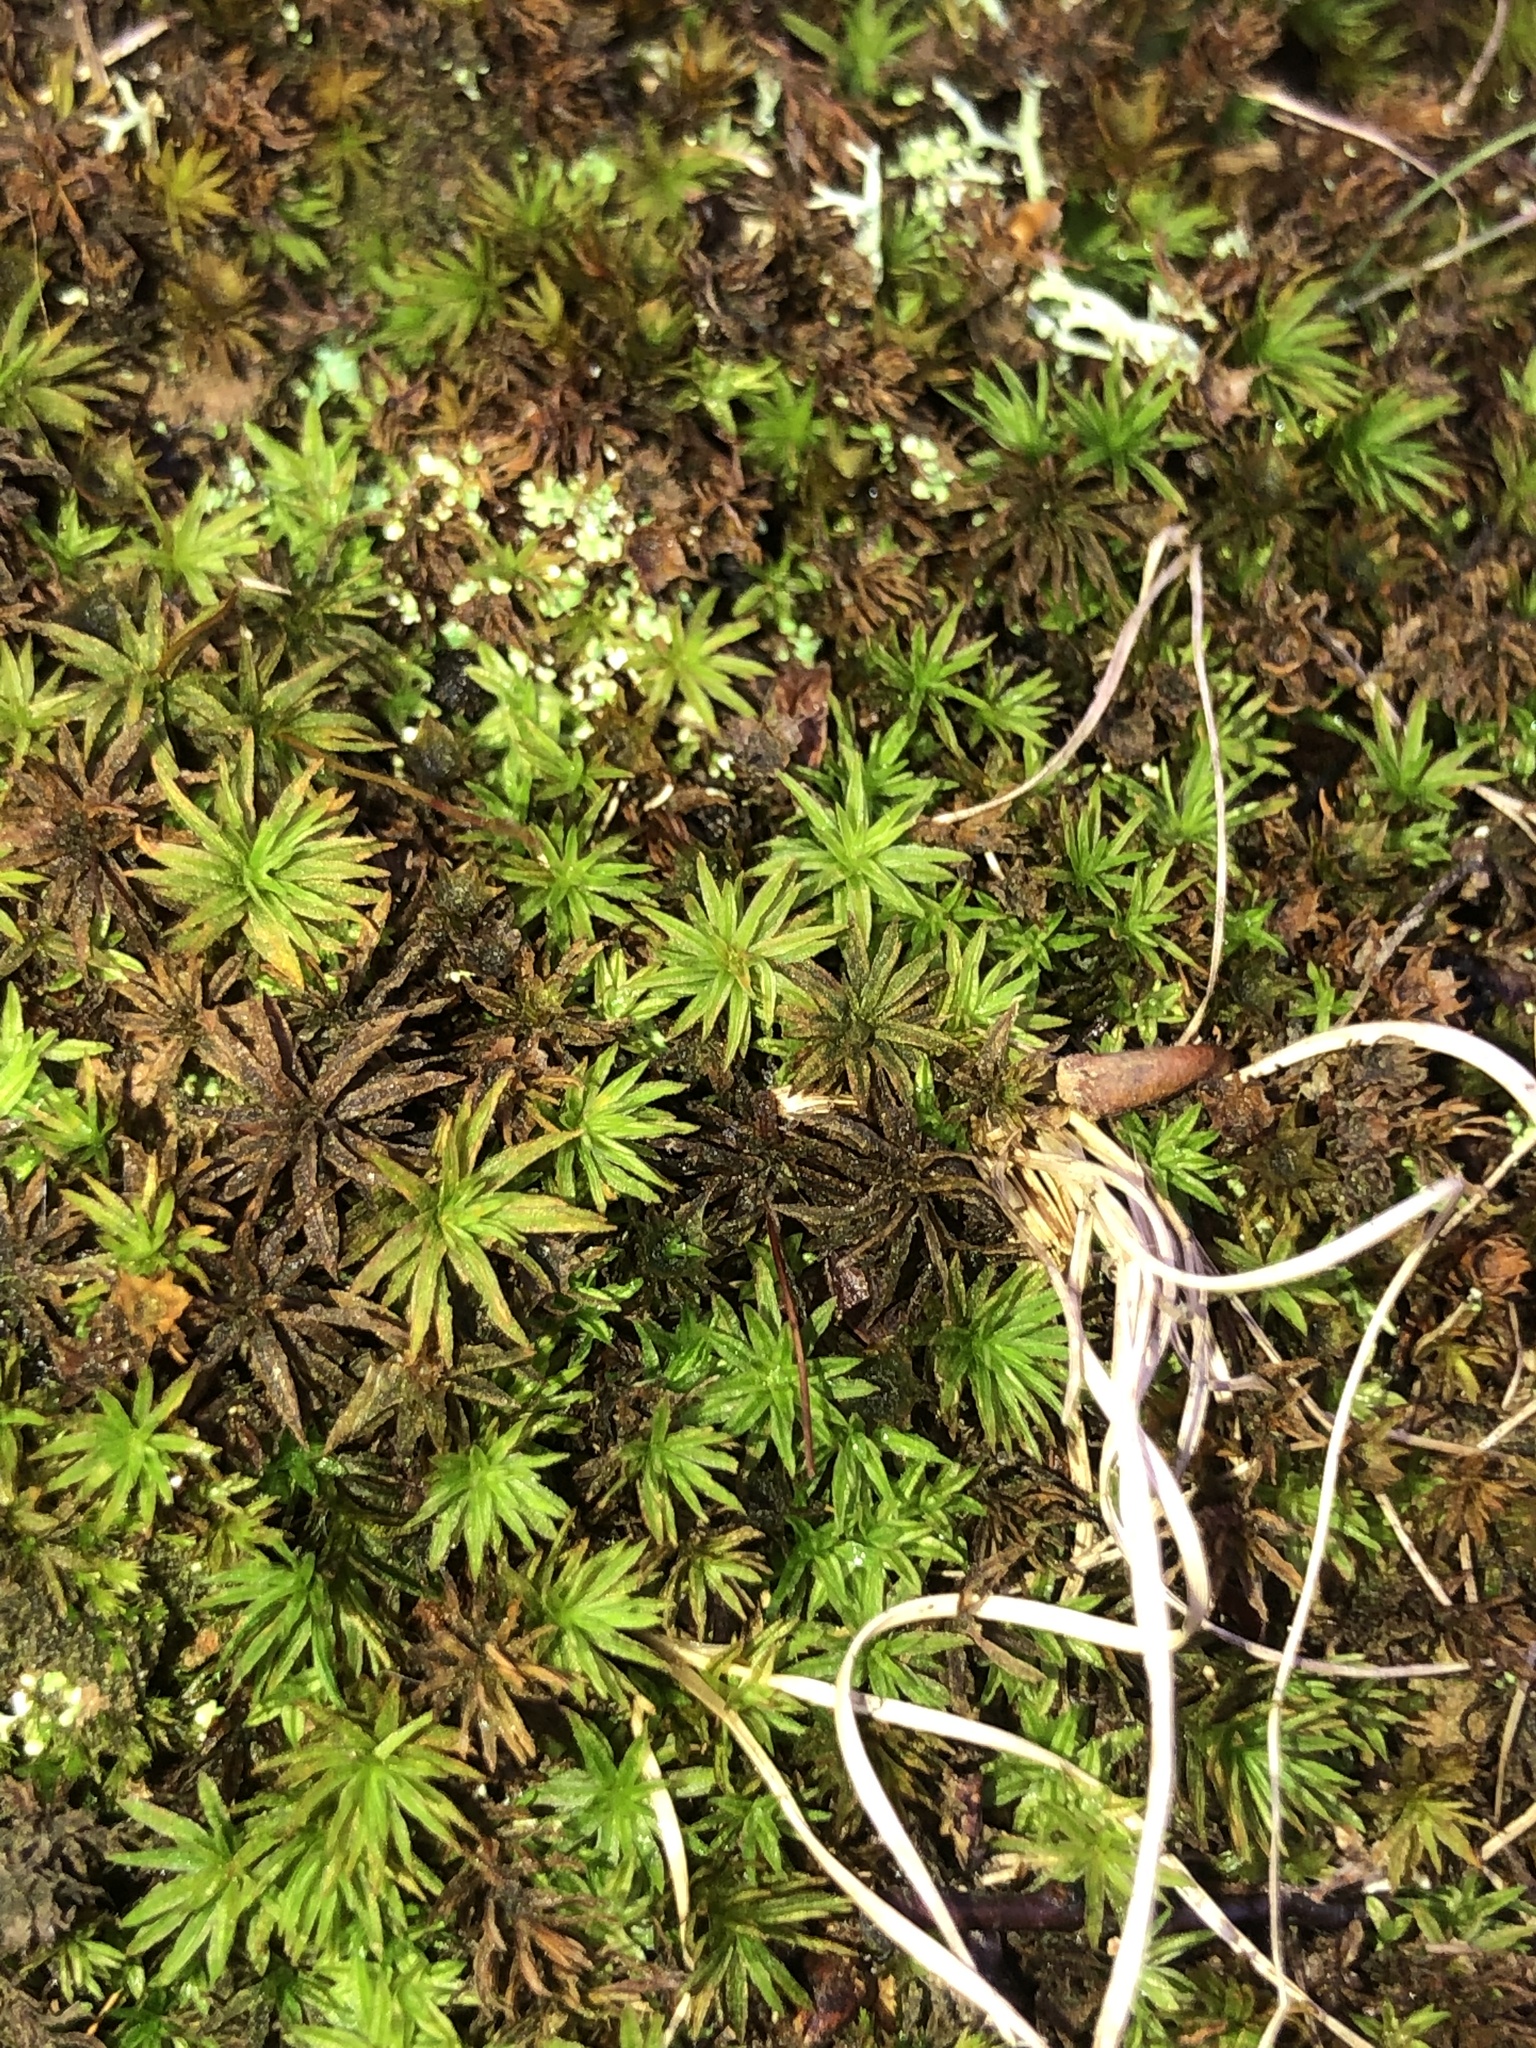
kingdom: Plantae
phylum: Bryophyta
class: Polytrichopsida
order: Polytrichales
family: Polytrichaceae
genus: Atrichum
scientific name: Atrichum angustatum
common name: Lesser smoothcap
